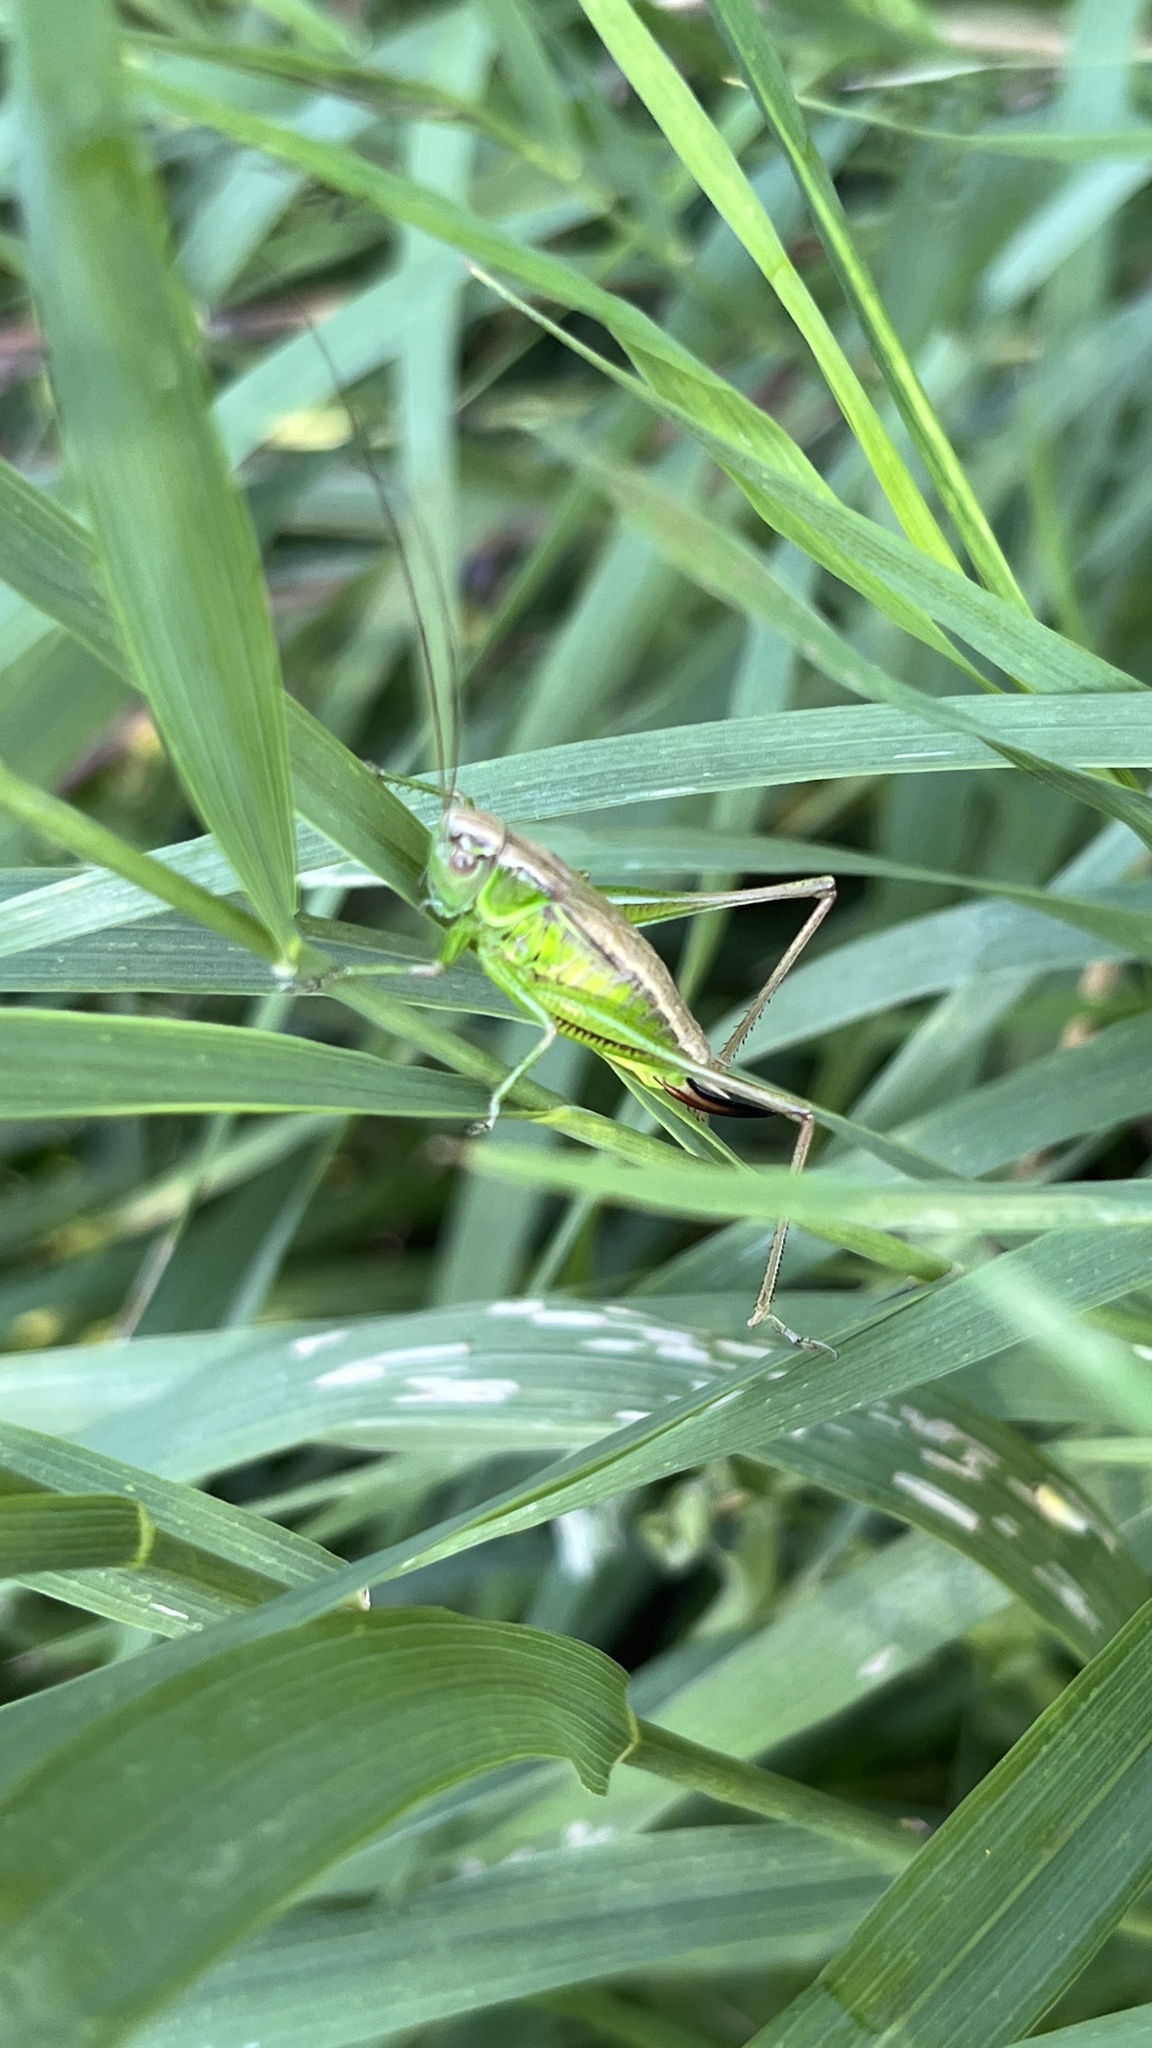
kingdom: Animalia
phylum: Arthropoda
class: Insecta
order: Orthoptera
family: Tettigoniidae
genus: Roeseliana
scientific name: Roeseliana roeselii
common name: Roesel's bush cricket
